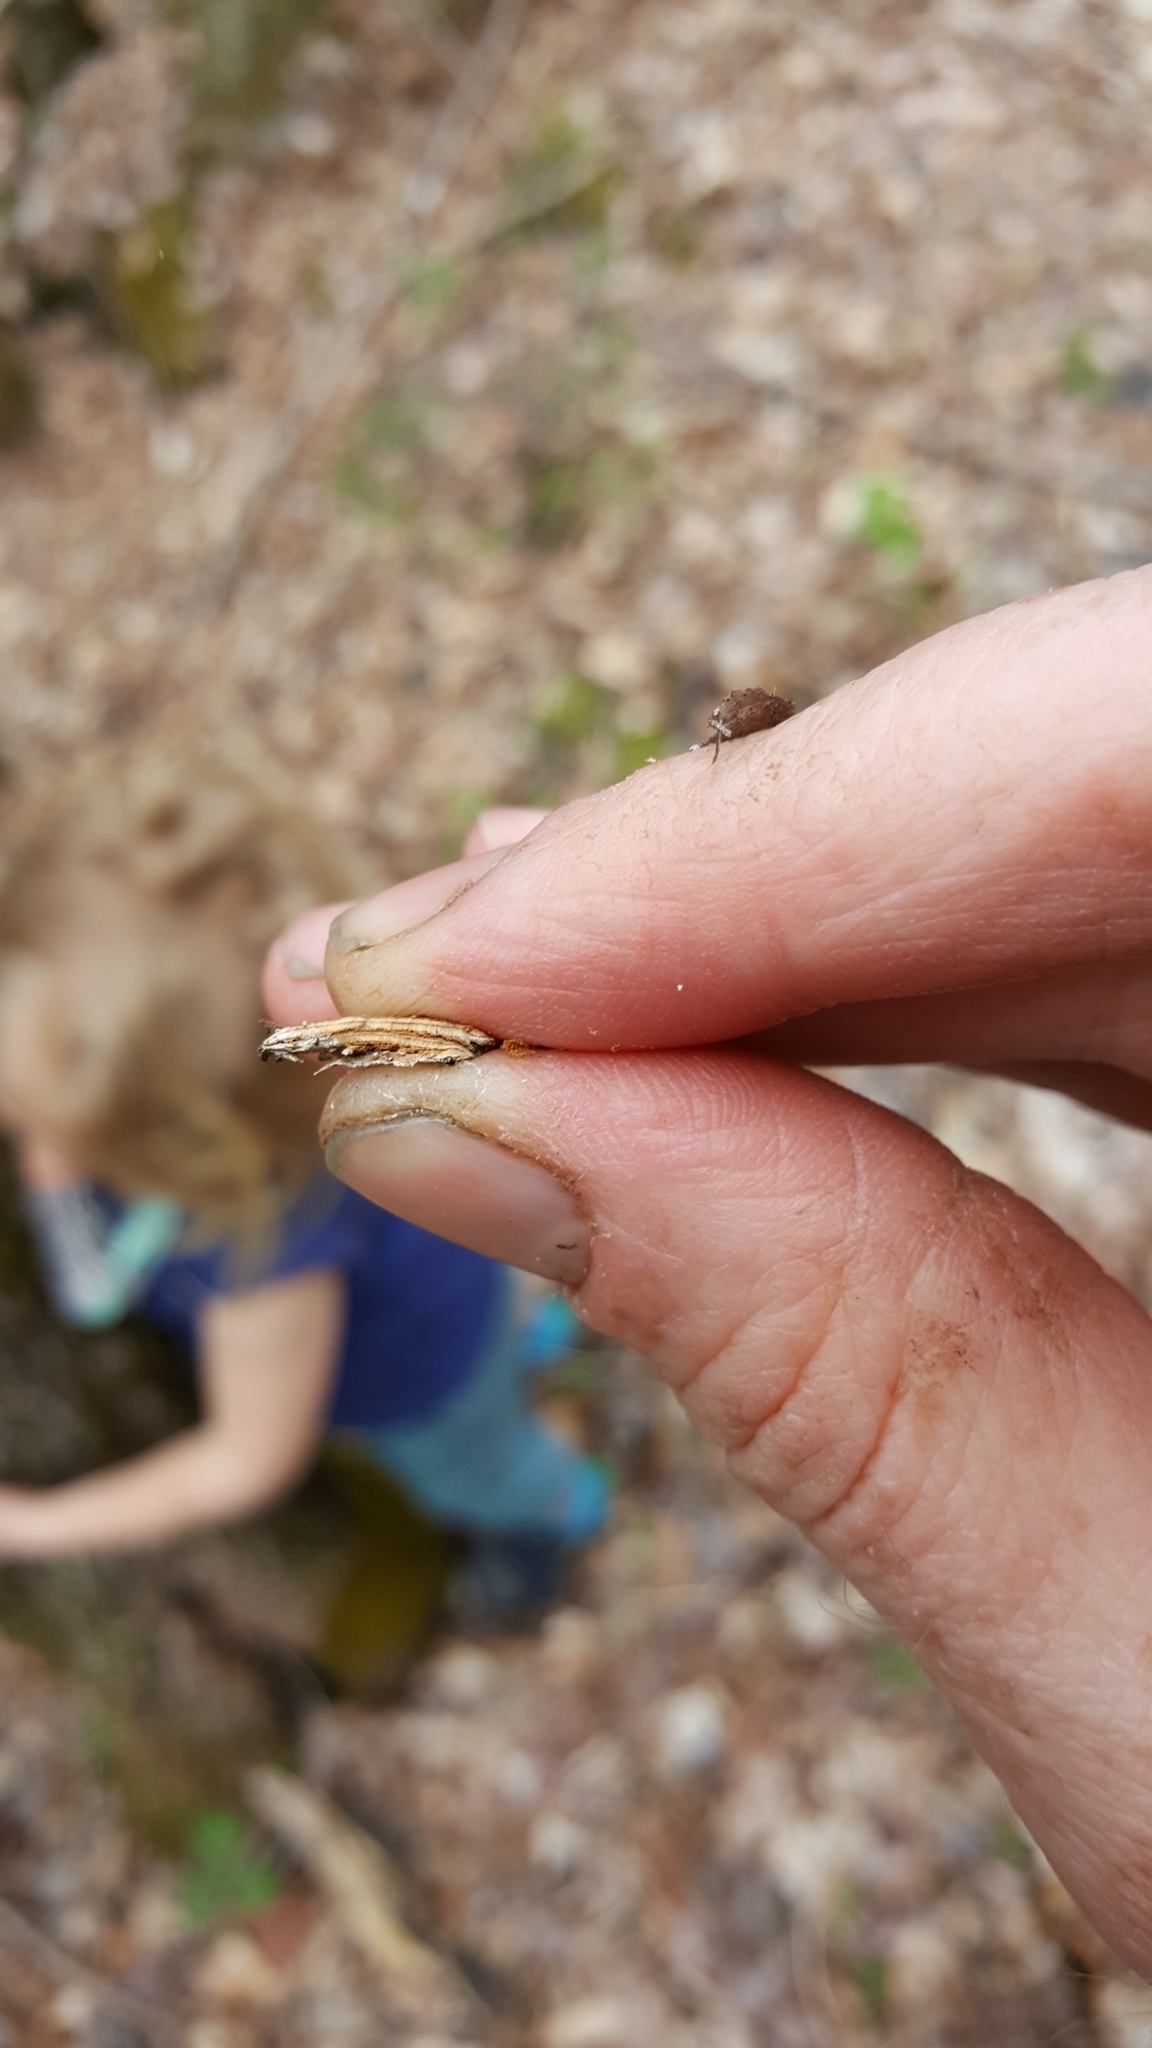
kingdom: Plantae
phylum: Tracheophyta
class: Magnoliopsida
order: Rosales
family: Ulmaceae
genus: Ulmus
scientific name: Ulmus americana
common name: American elm
